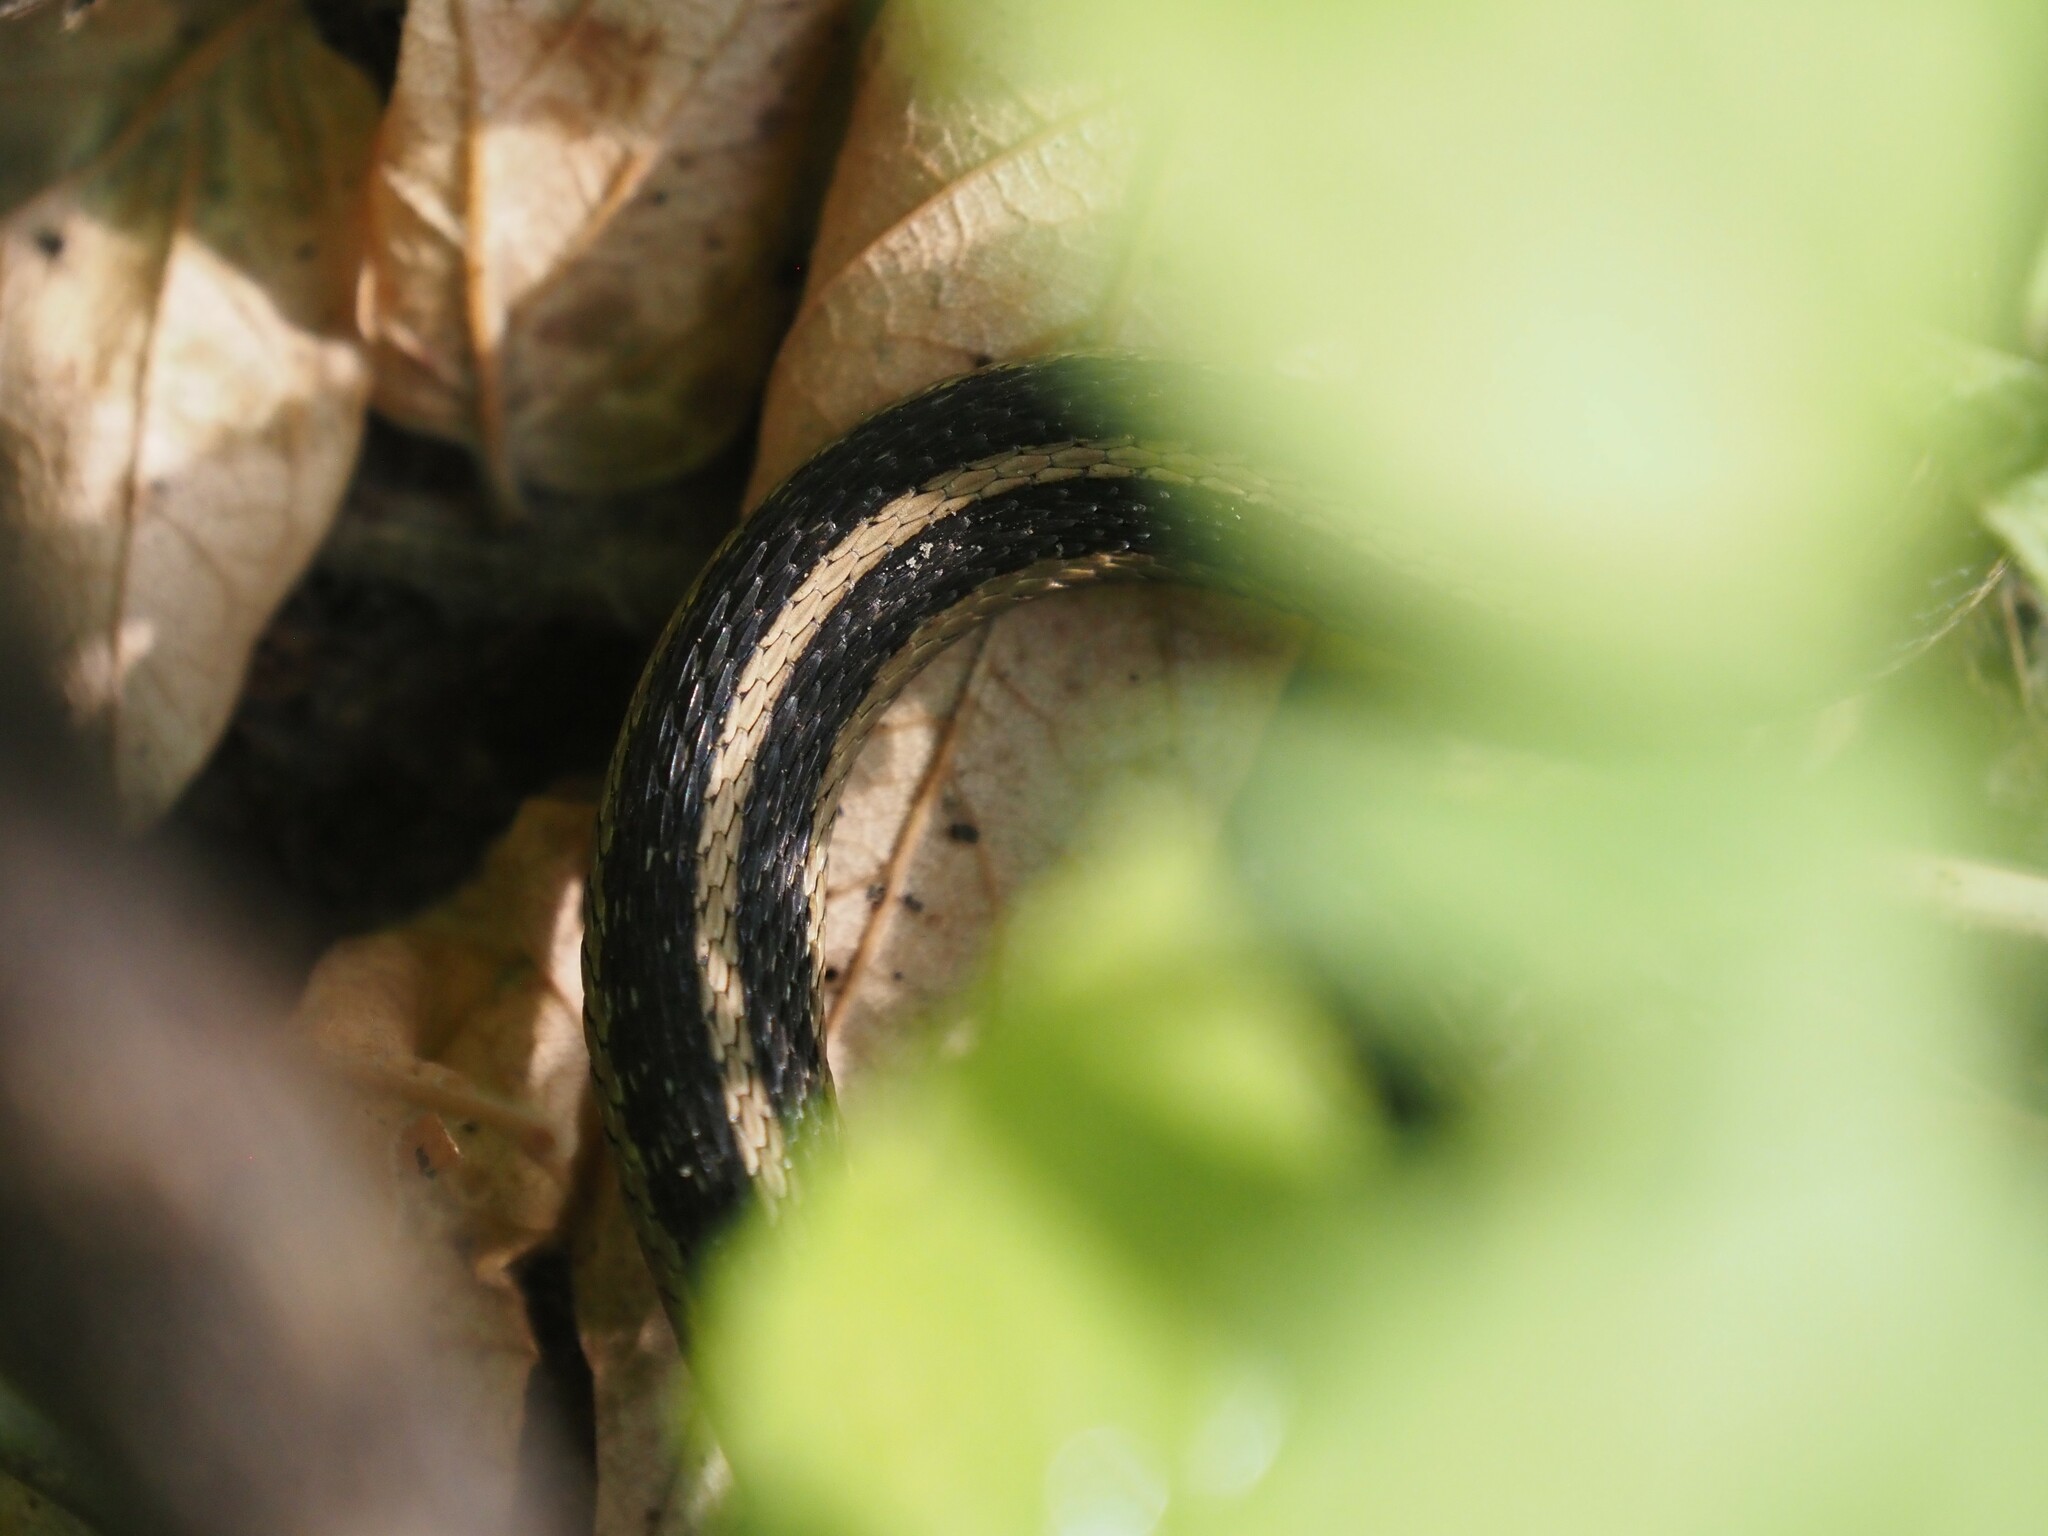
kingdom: Animalia
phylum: Chordata
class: Squamata
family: Colubridae
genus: Thamnophis
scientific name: Thamnophis sirtalis
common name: Common garter snake
